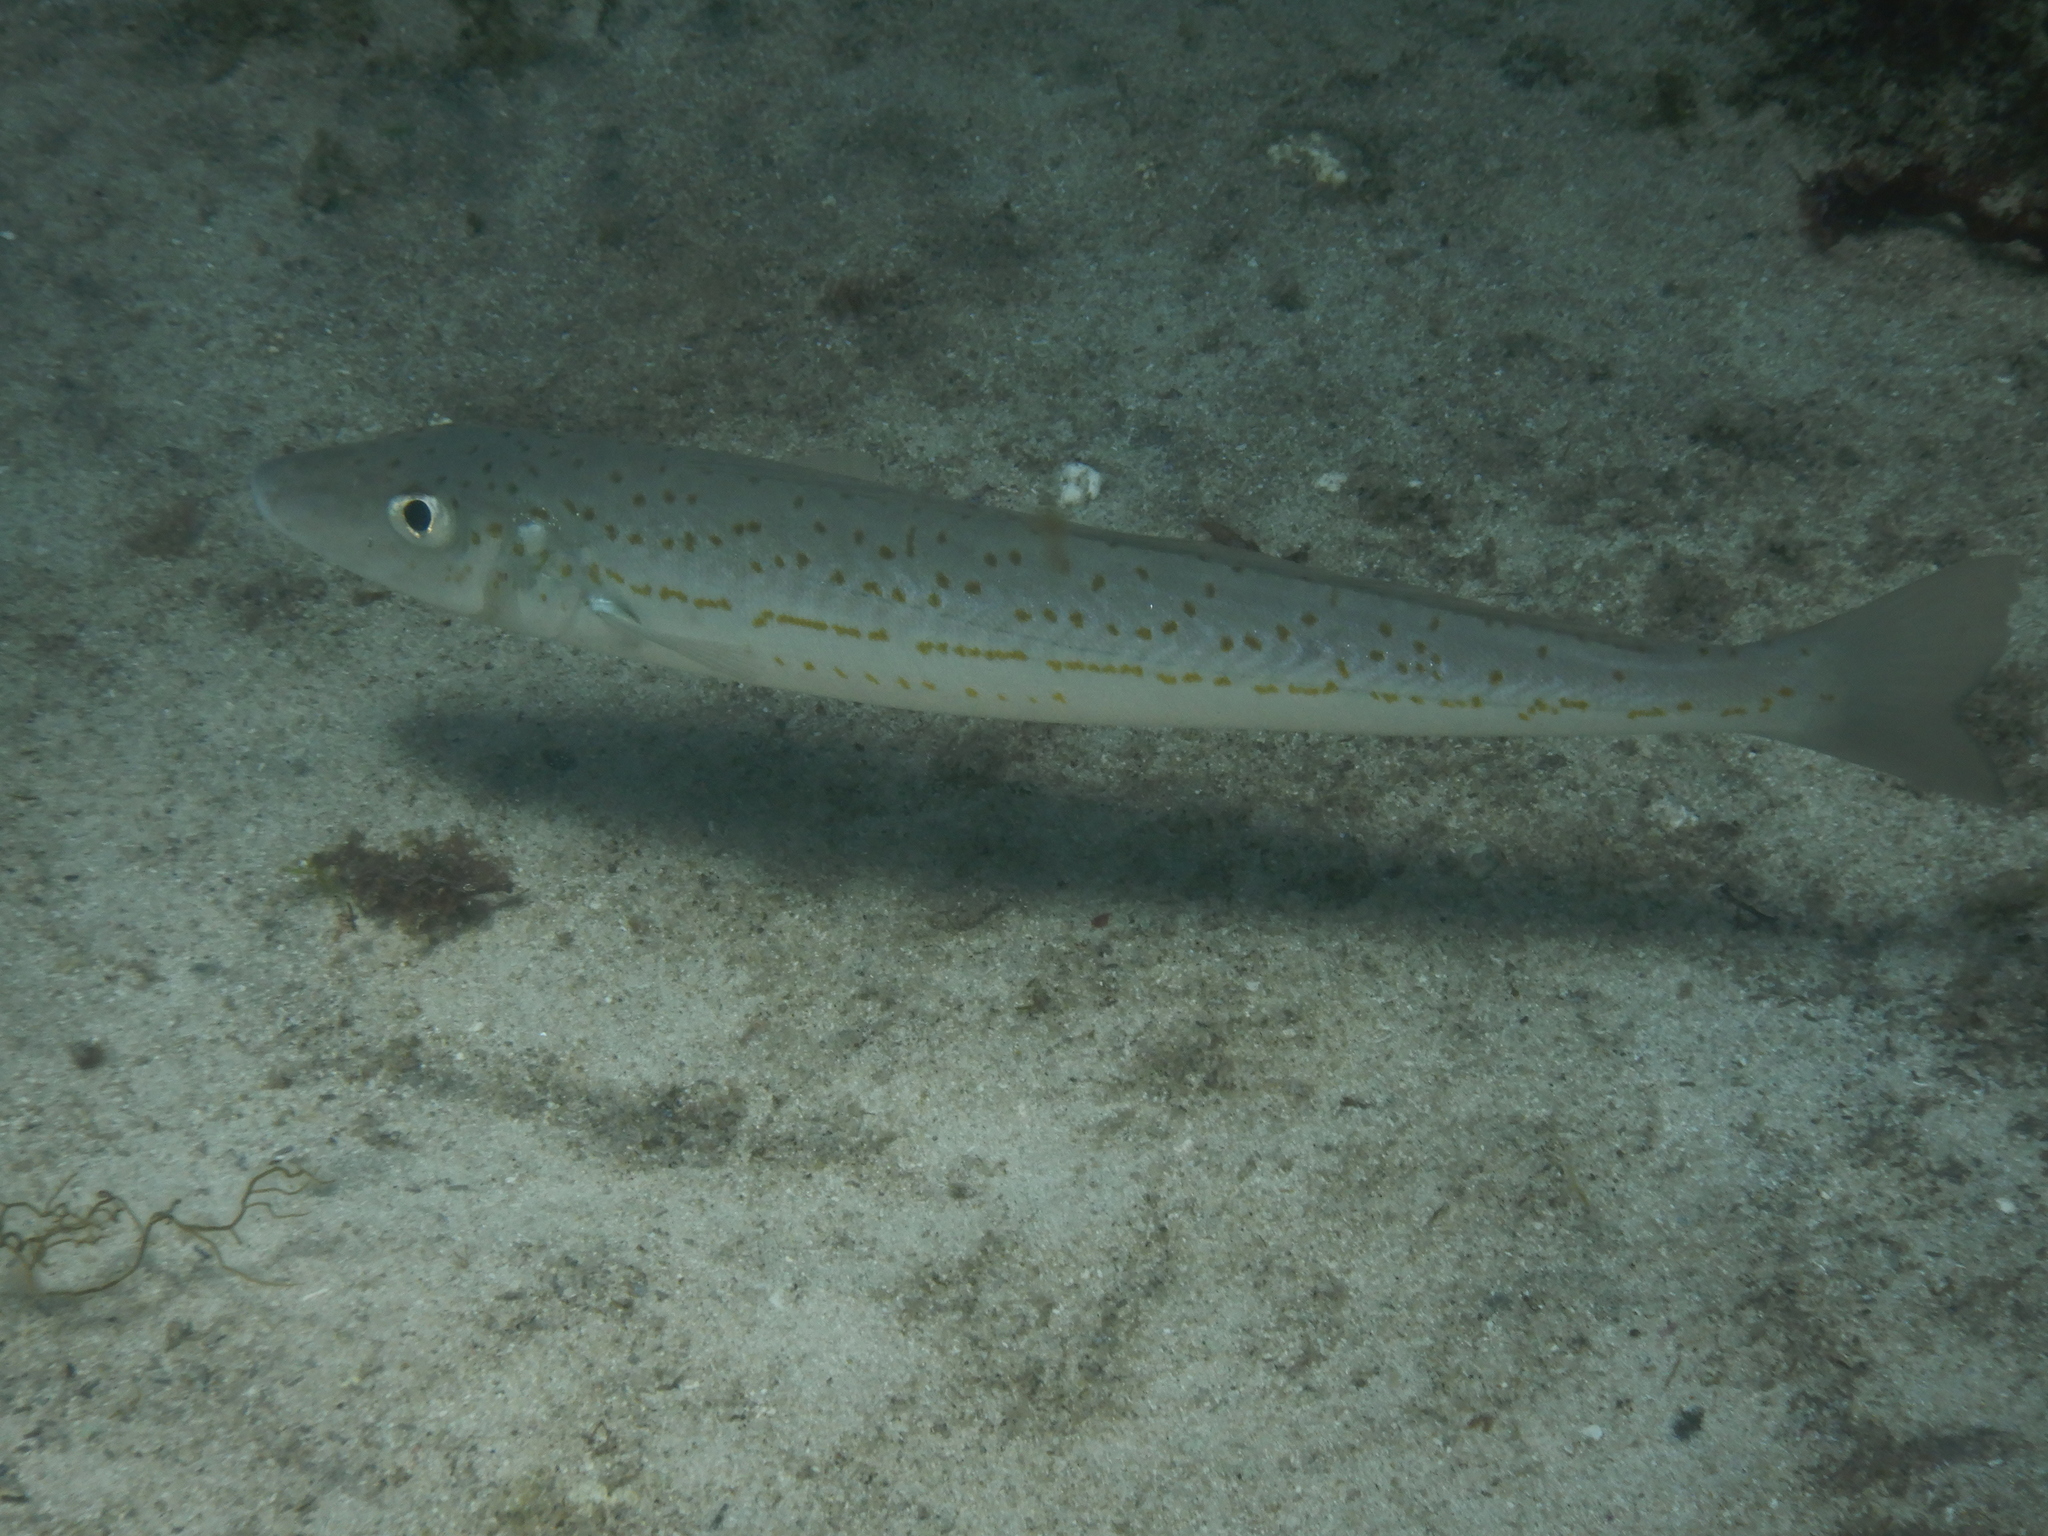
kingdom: Animalia
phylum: Chordata
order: Perciformes
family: Sillaginidae
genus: Sillaginodes
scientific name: Sillaginodes punctatus
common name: King george whiting
